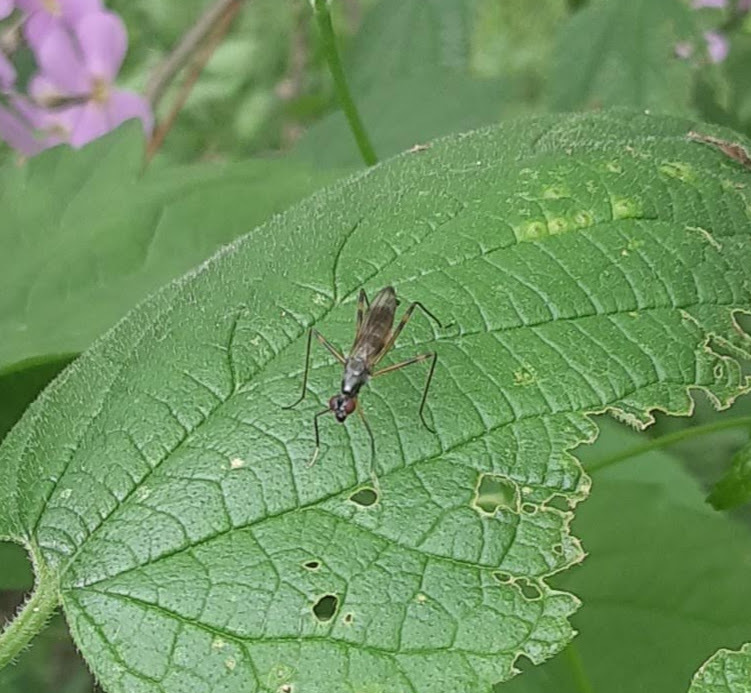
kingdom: Animalia
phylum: Arthropoda
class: Insecta
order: Diptera
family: Micropezidae
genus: Rainieria
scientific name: Rainieria antennaepes
